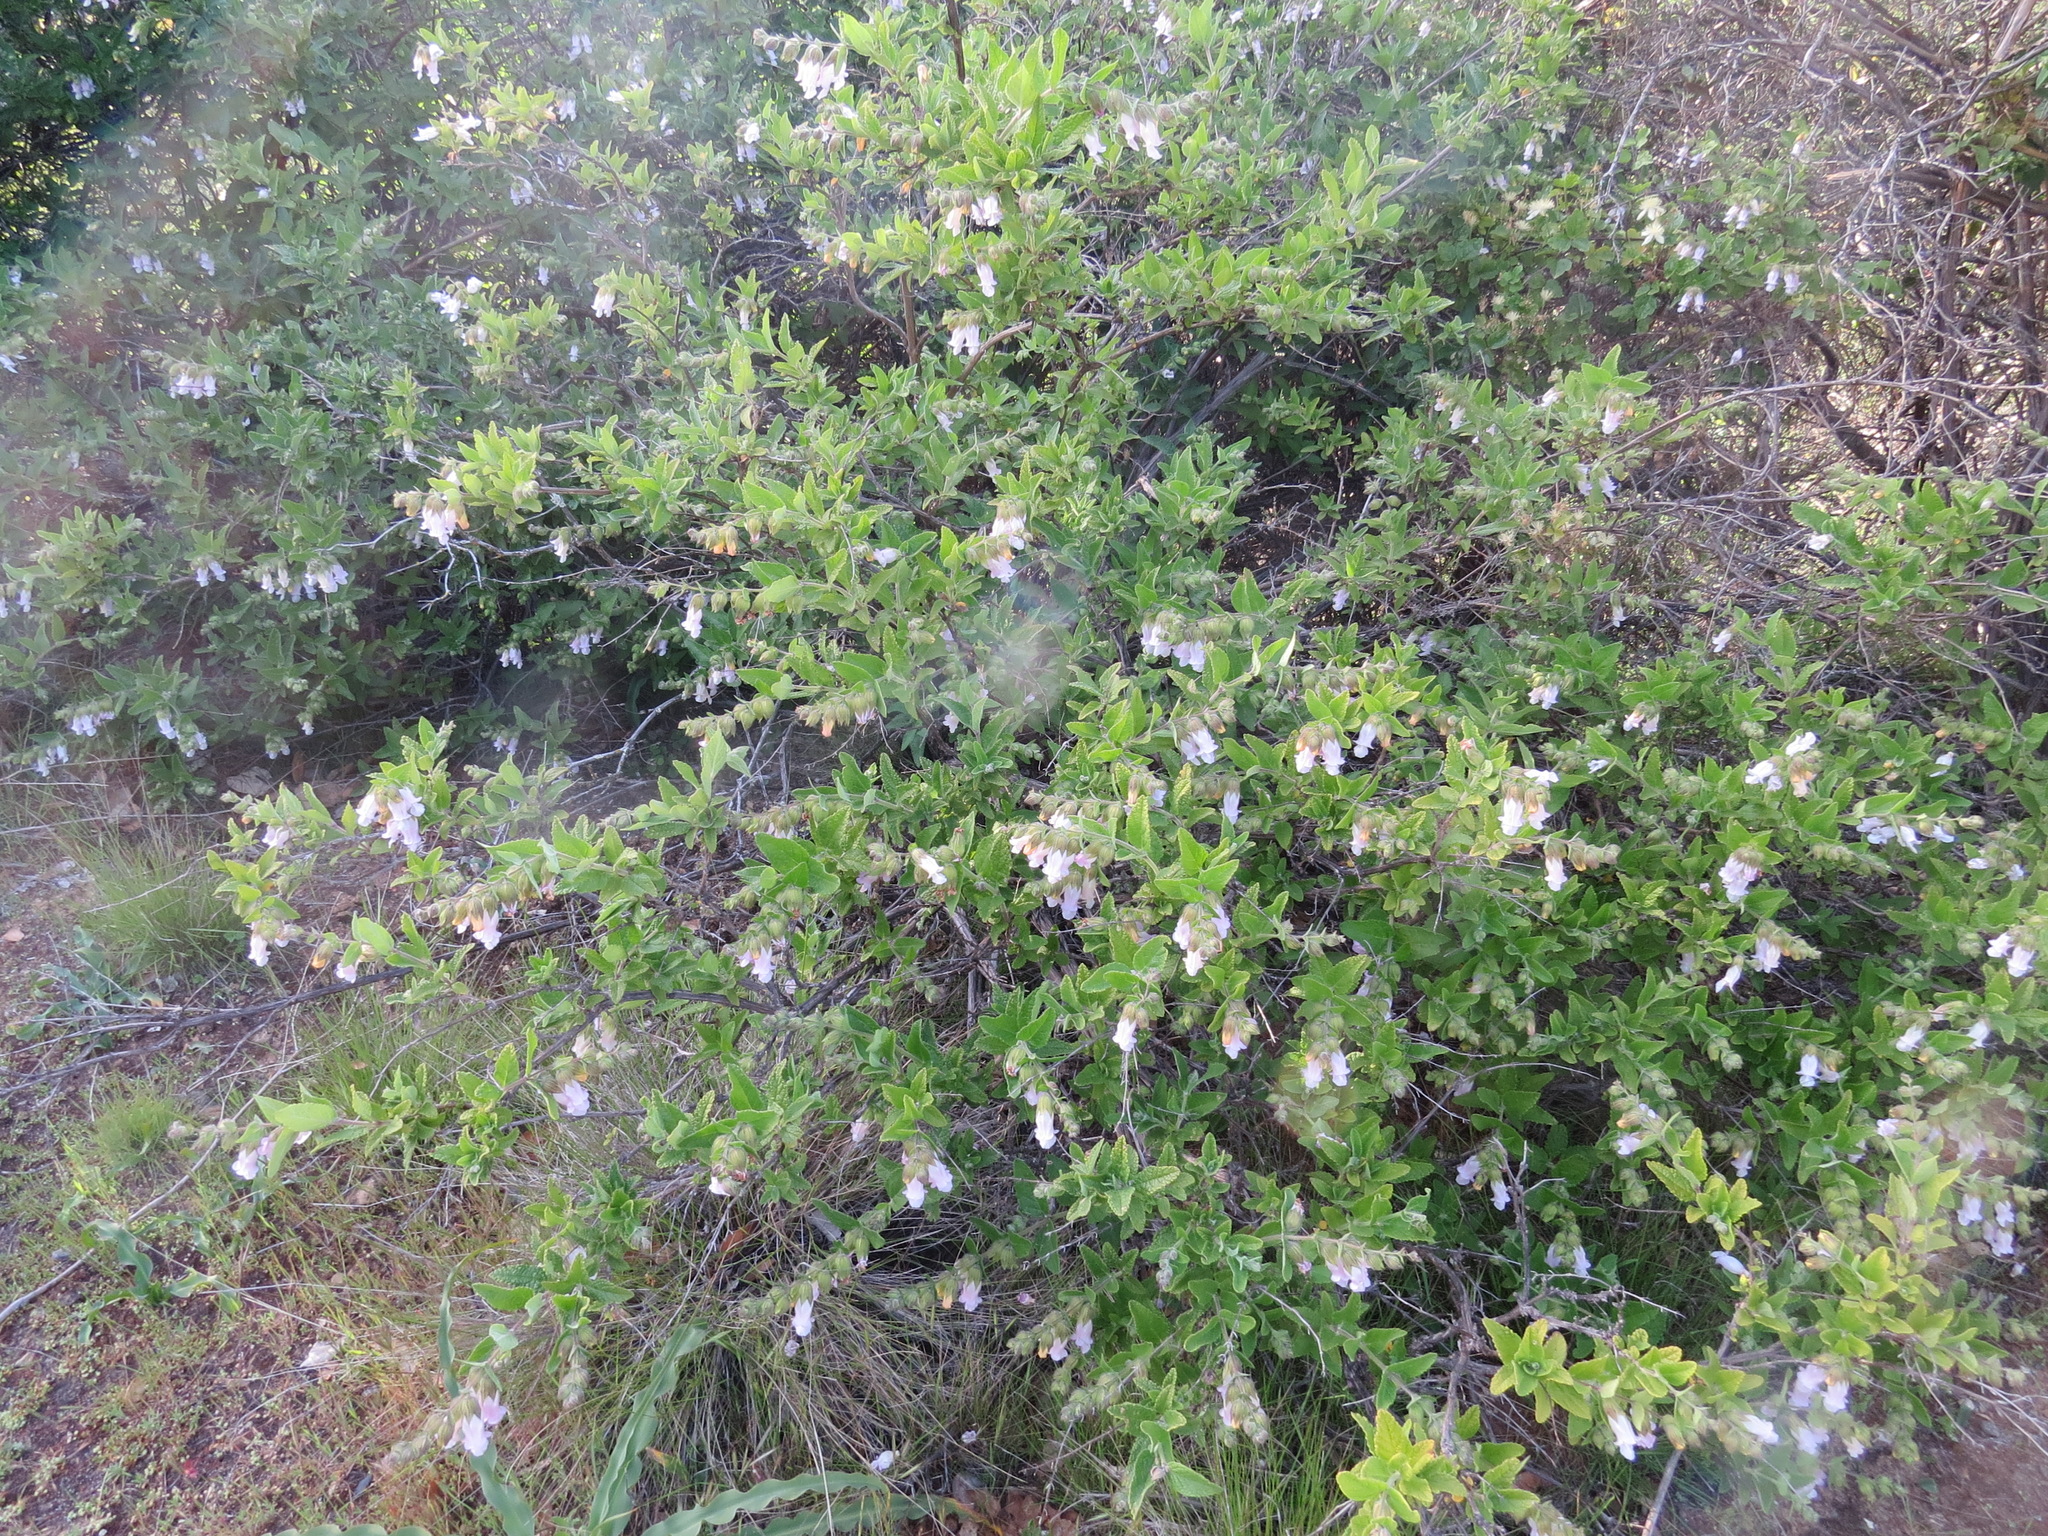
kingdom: Plantae
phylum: Tracheophyta
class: Magnoliopsida
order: Lamiales
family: Lamiaceae
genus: Lepechinia
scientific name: Lepechinia calycina
